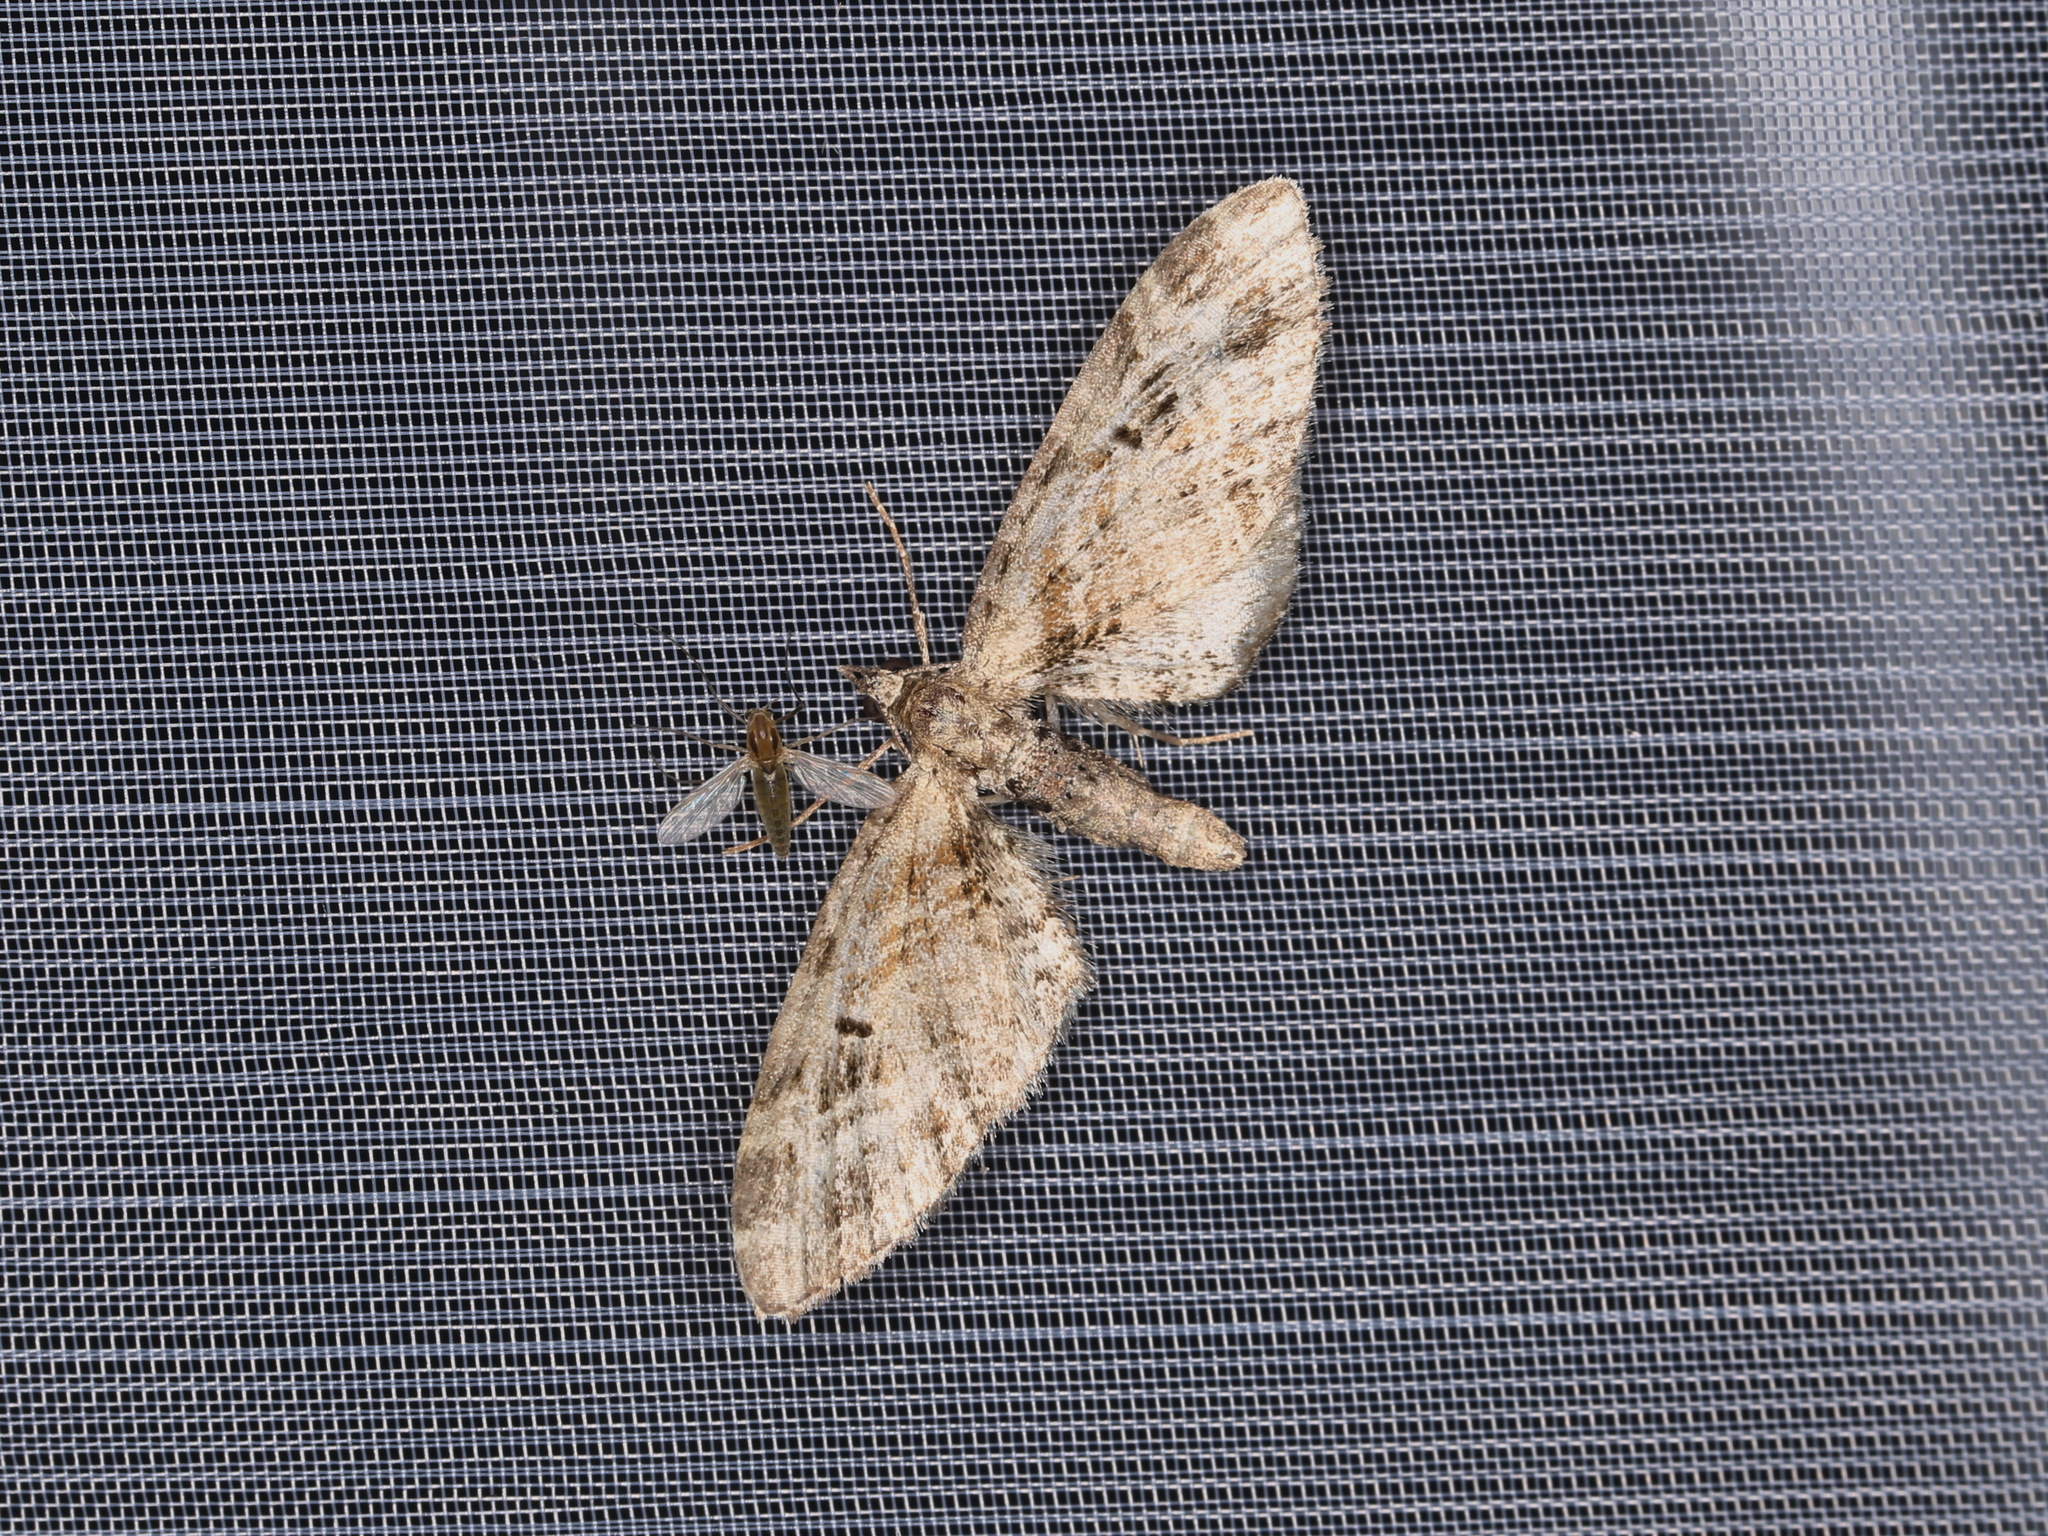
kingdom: Animalia
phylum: Arthropoda
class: Insecta
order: Lepidoptera
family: Geometridae
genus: Eupithecia
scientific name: Eupithecia exiguata
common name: Mottled pug
